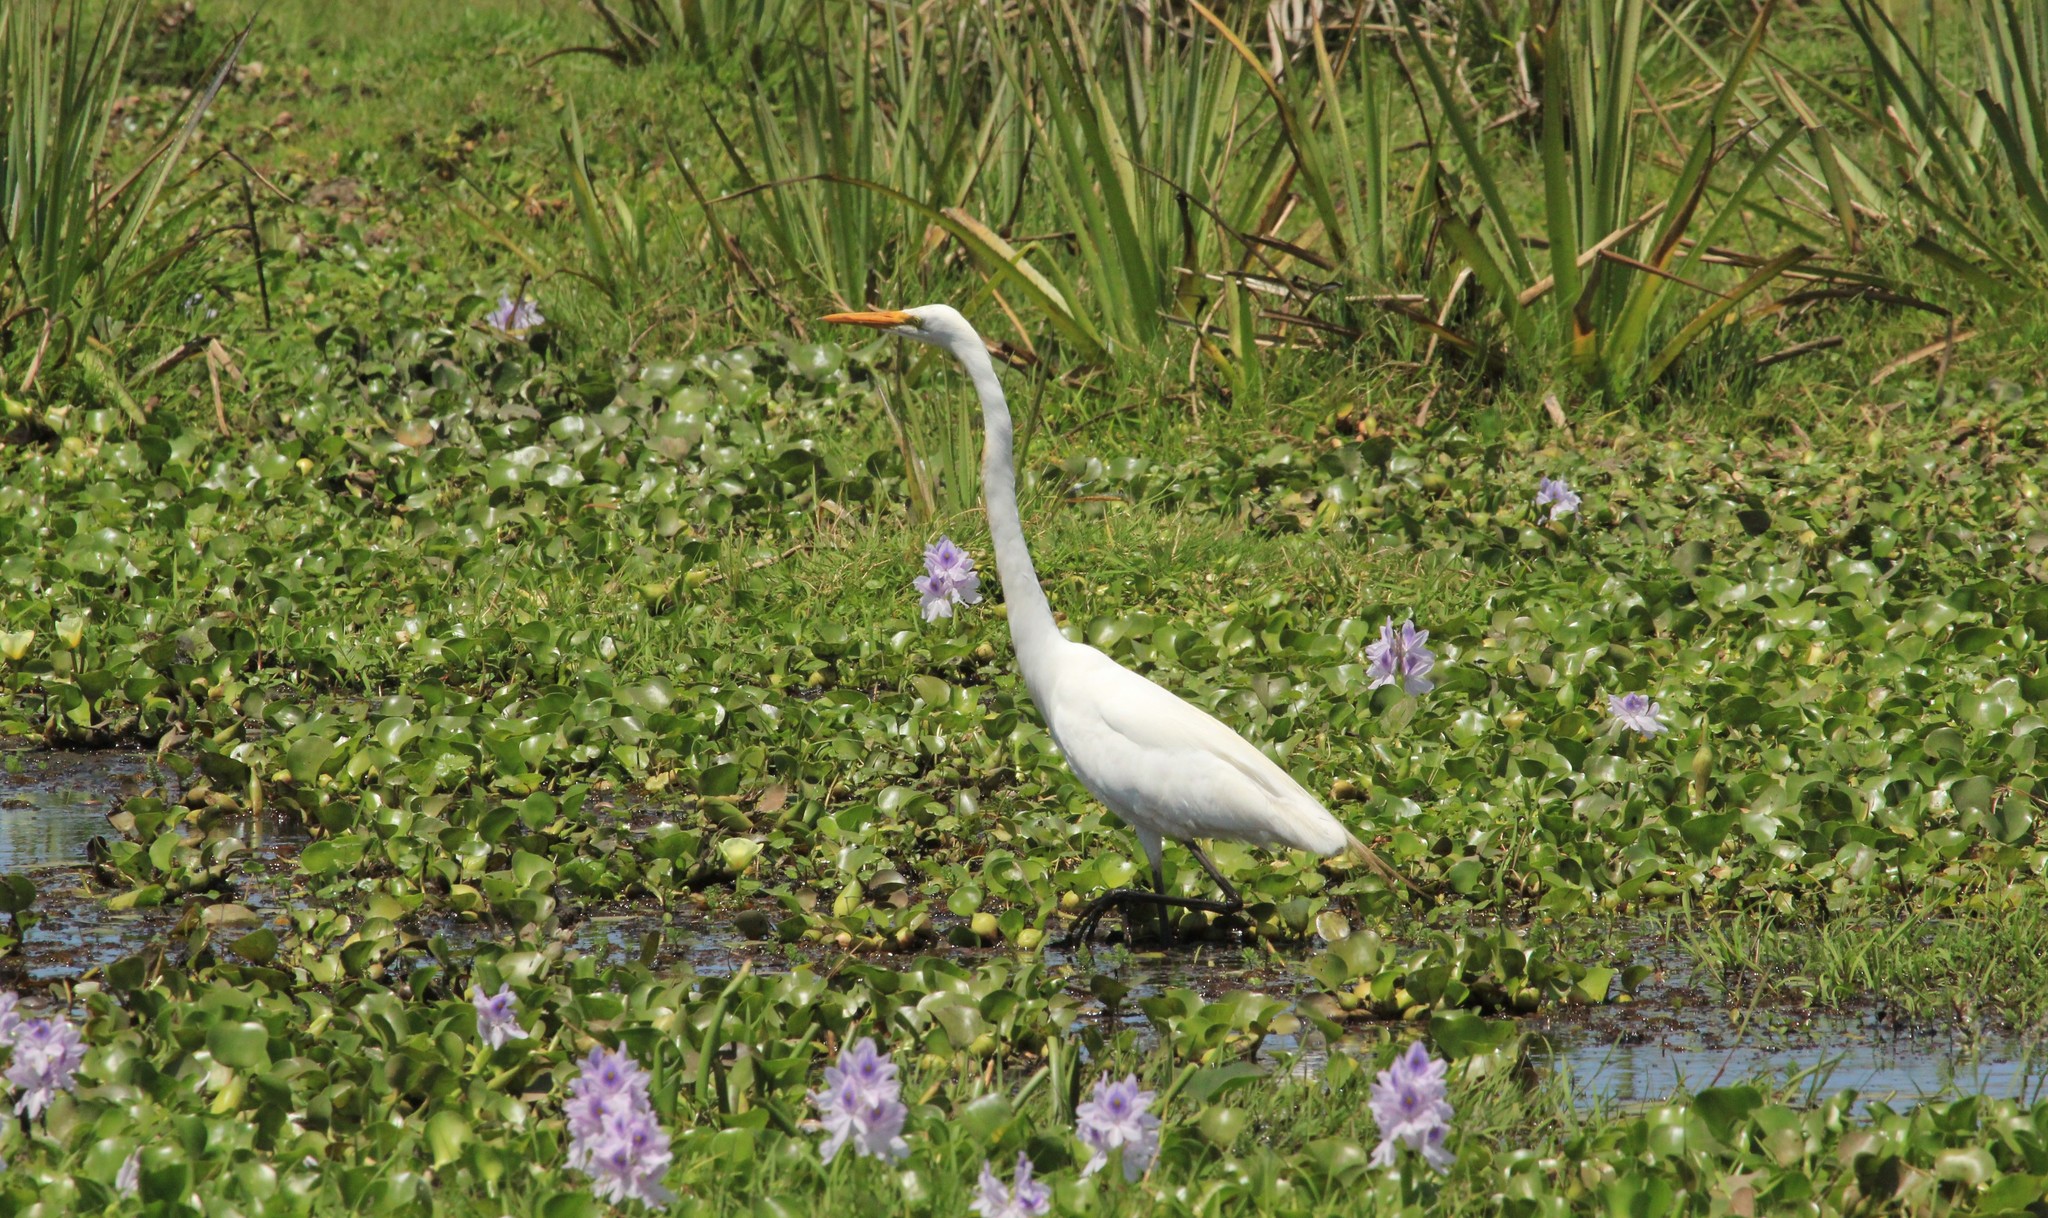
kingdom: Animalia
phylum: Chordata
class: Aves
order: Pelecaniformes
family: Ardeidae
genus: Ardea
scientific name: Ardea alba
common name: Great egret
